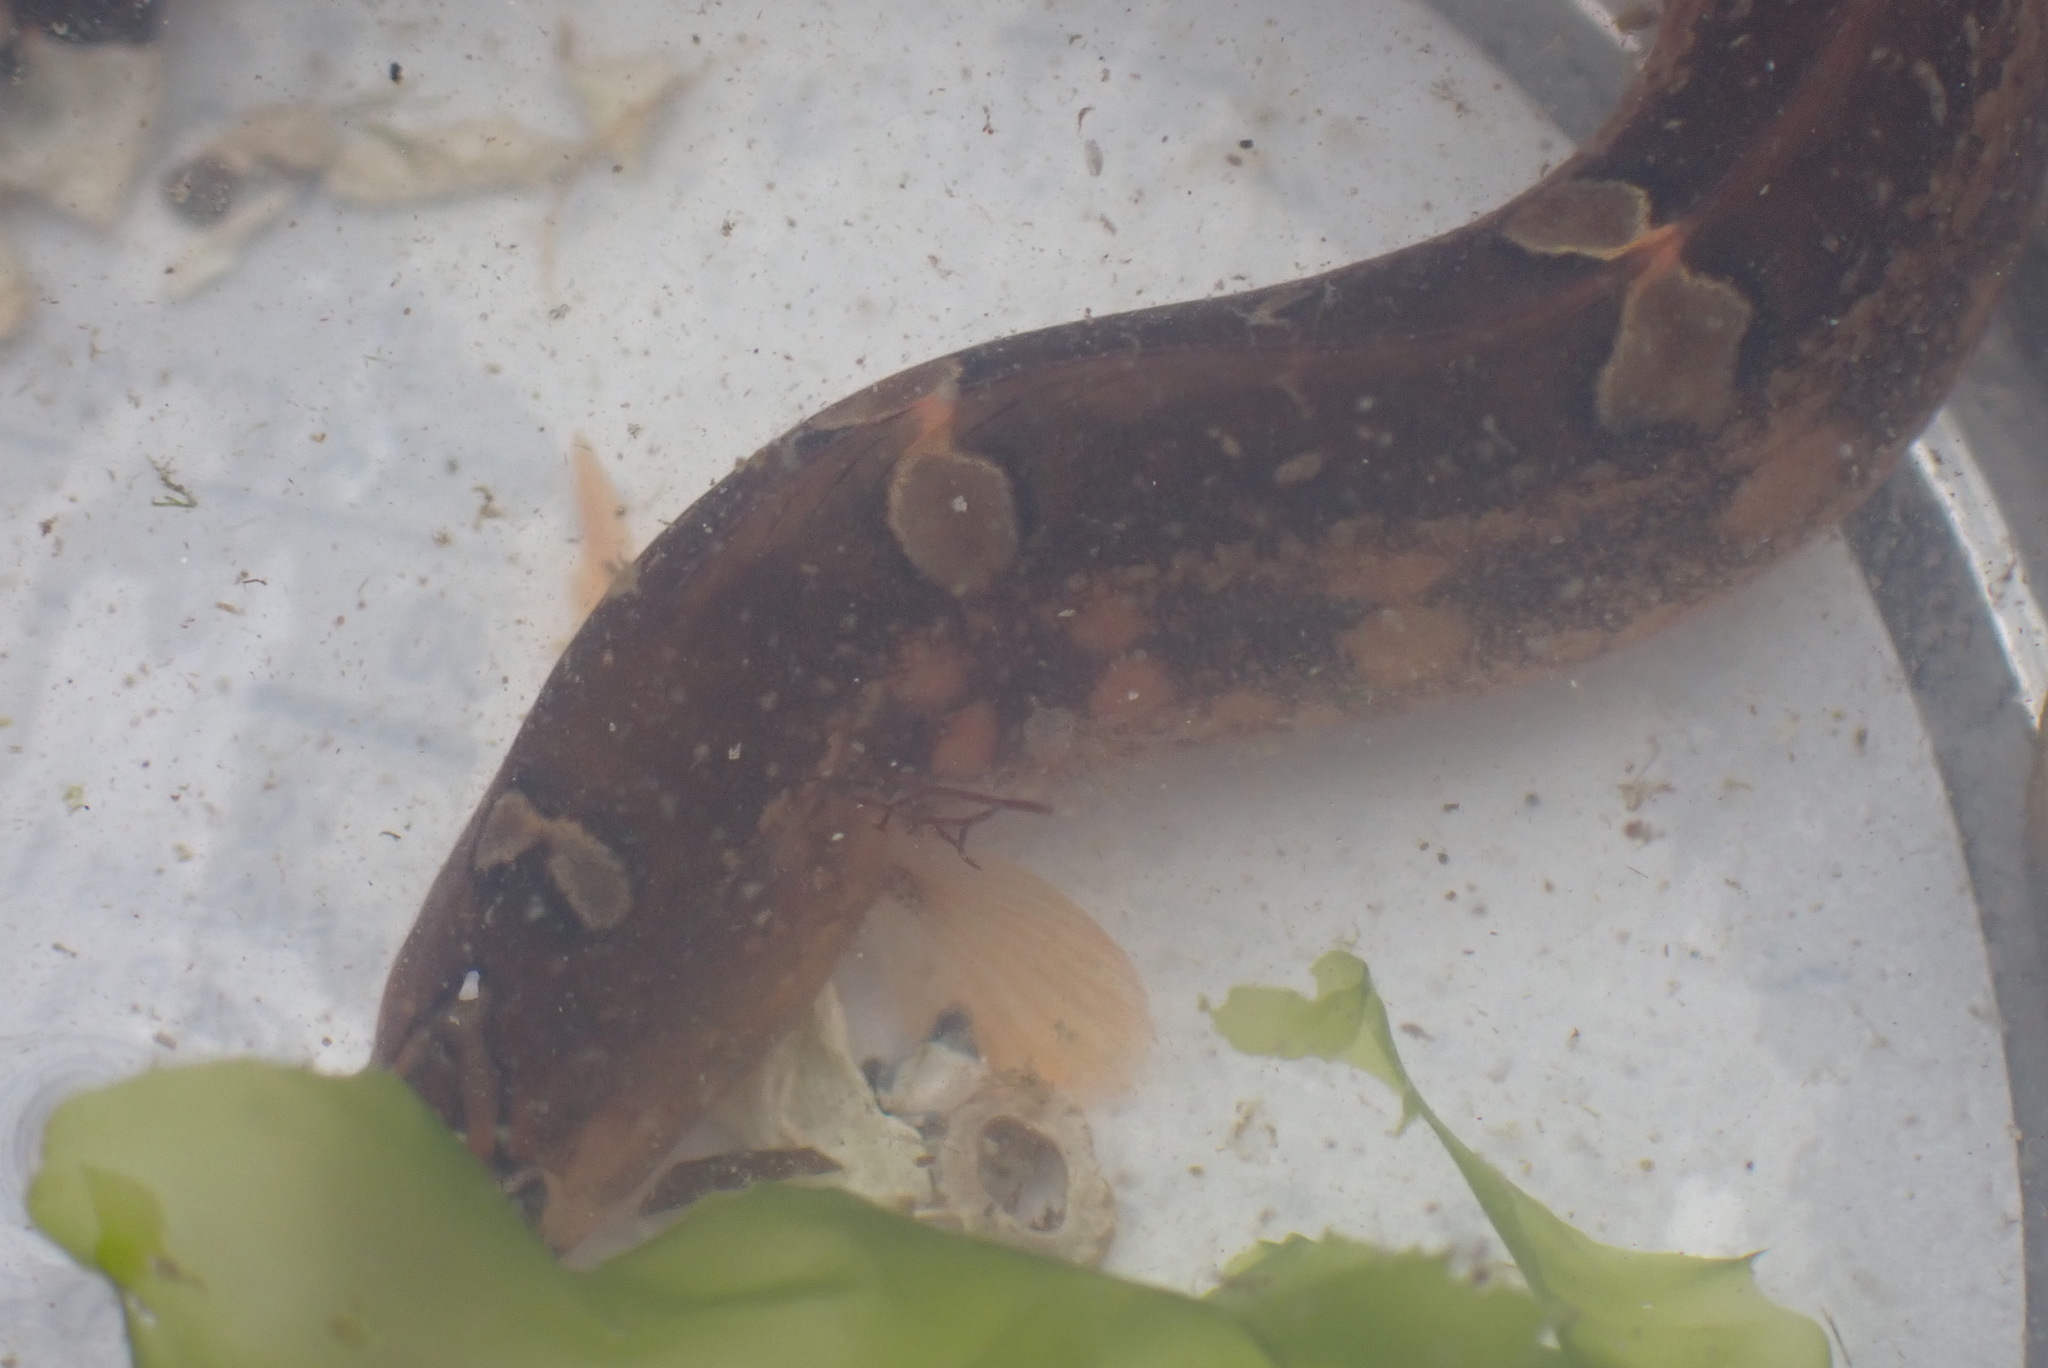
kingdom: Animalia
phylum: Chordata
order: Perciformes
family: Pholidae
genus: Pholis
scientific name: Pholis laeta
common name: Crescent gunnel
